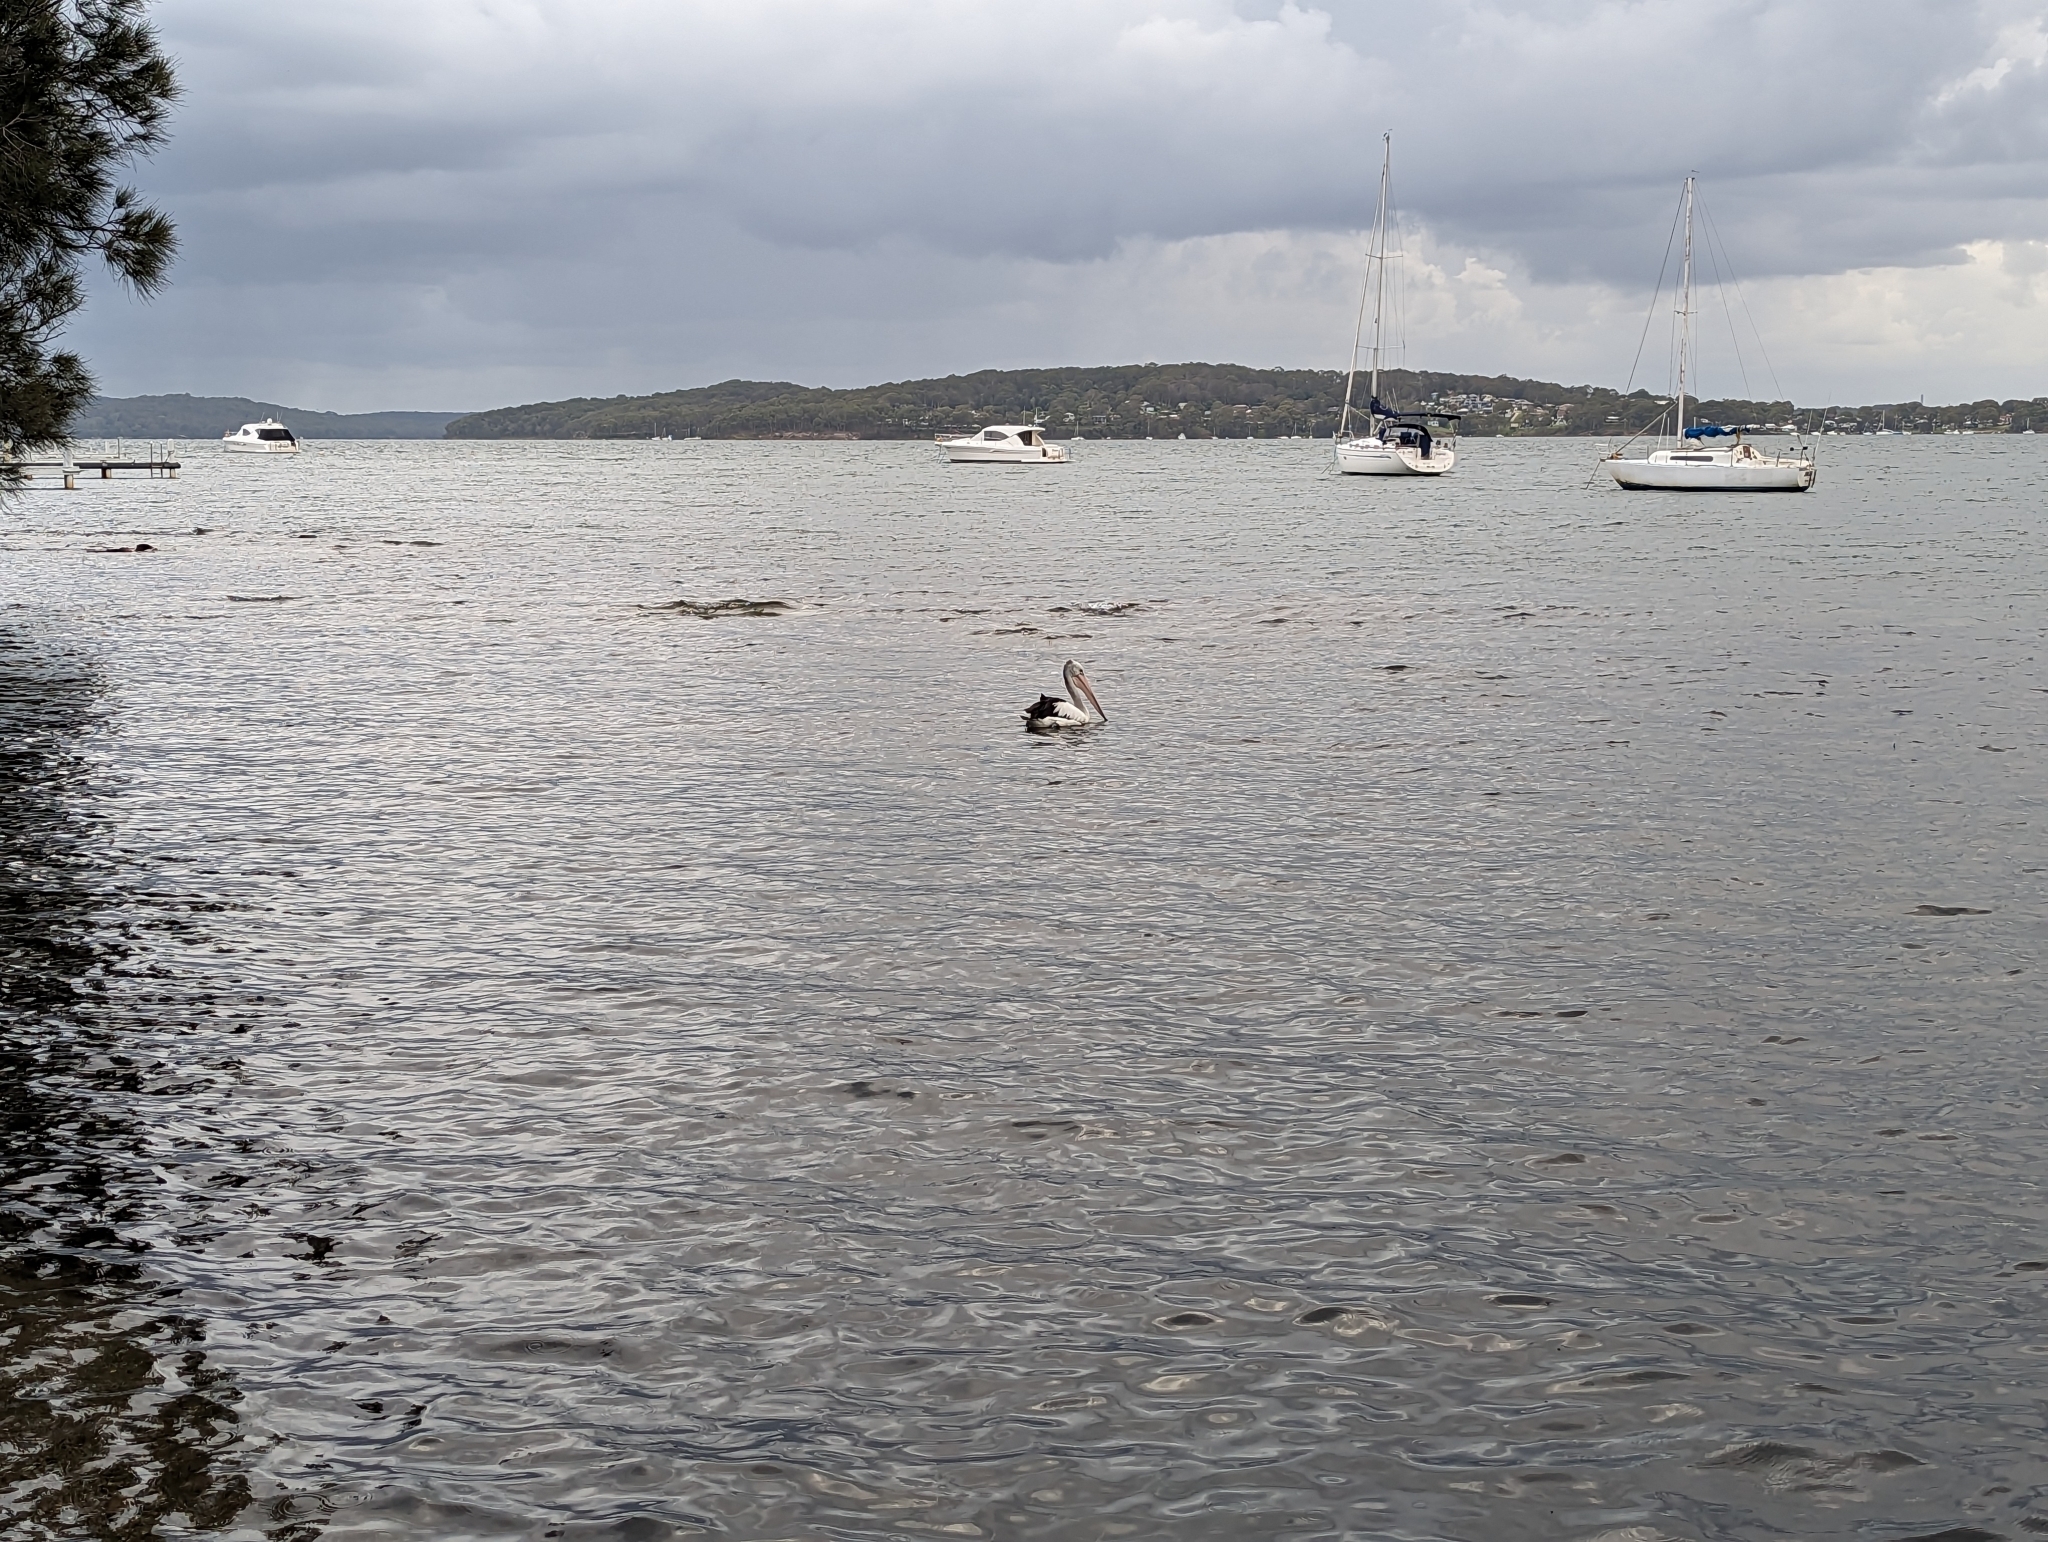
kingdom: Animalia
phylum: Chordata
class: Aves
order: Pelecaniformes
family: Pelecanidae
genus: Pelecanus
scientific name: Pelecanus conspicillatus
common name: Australian pelican
